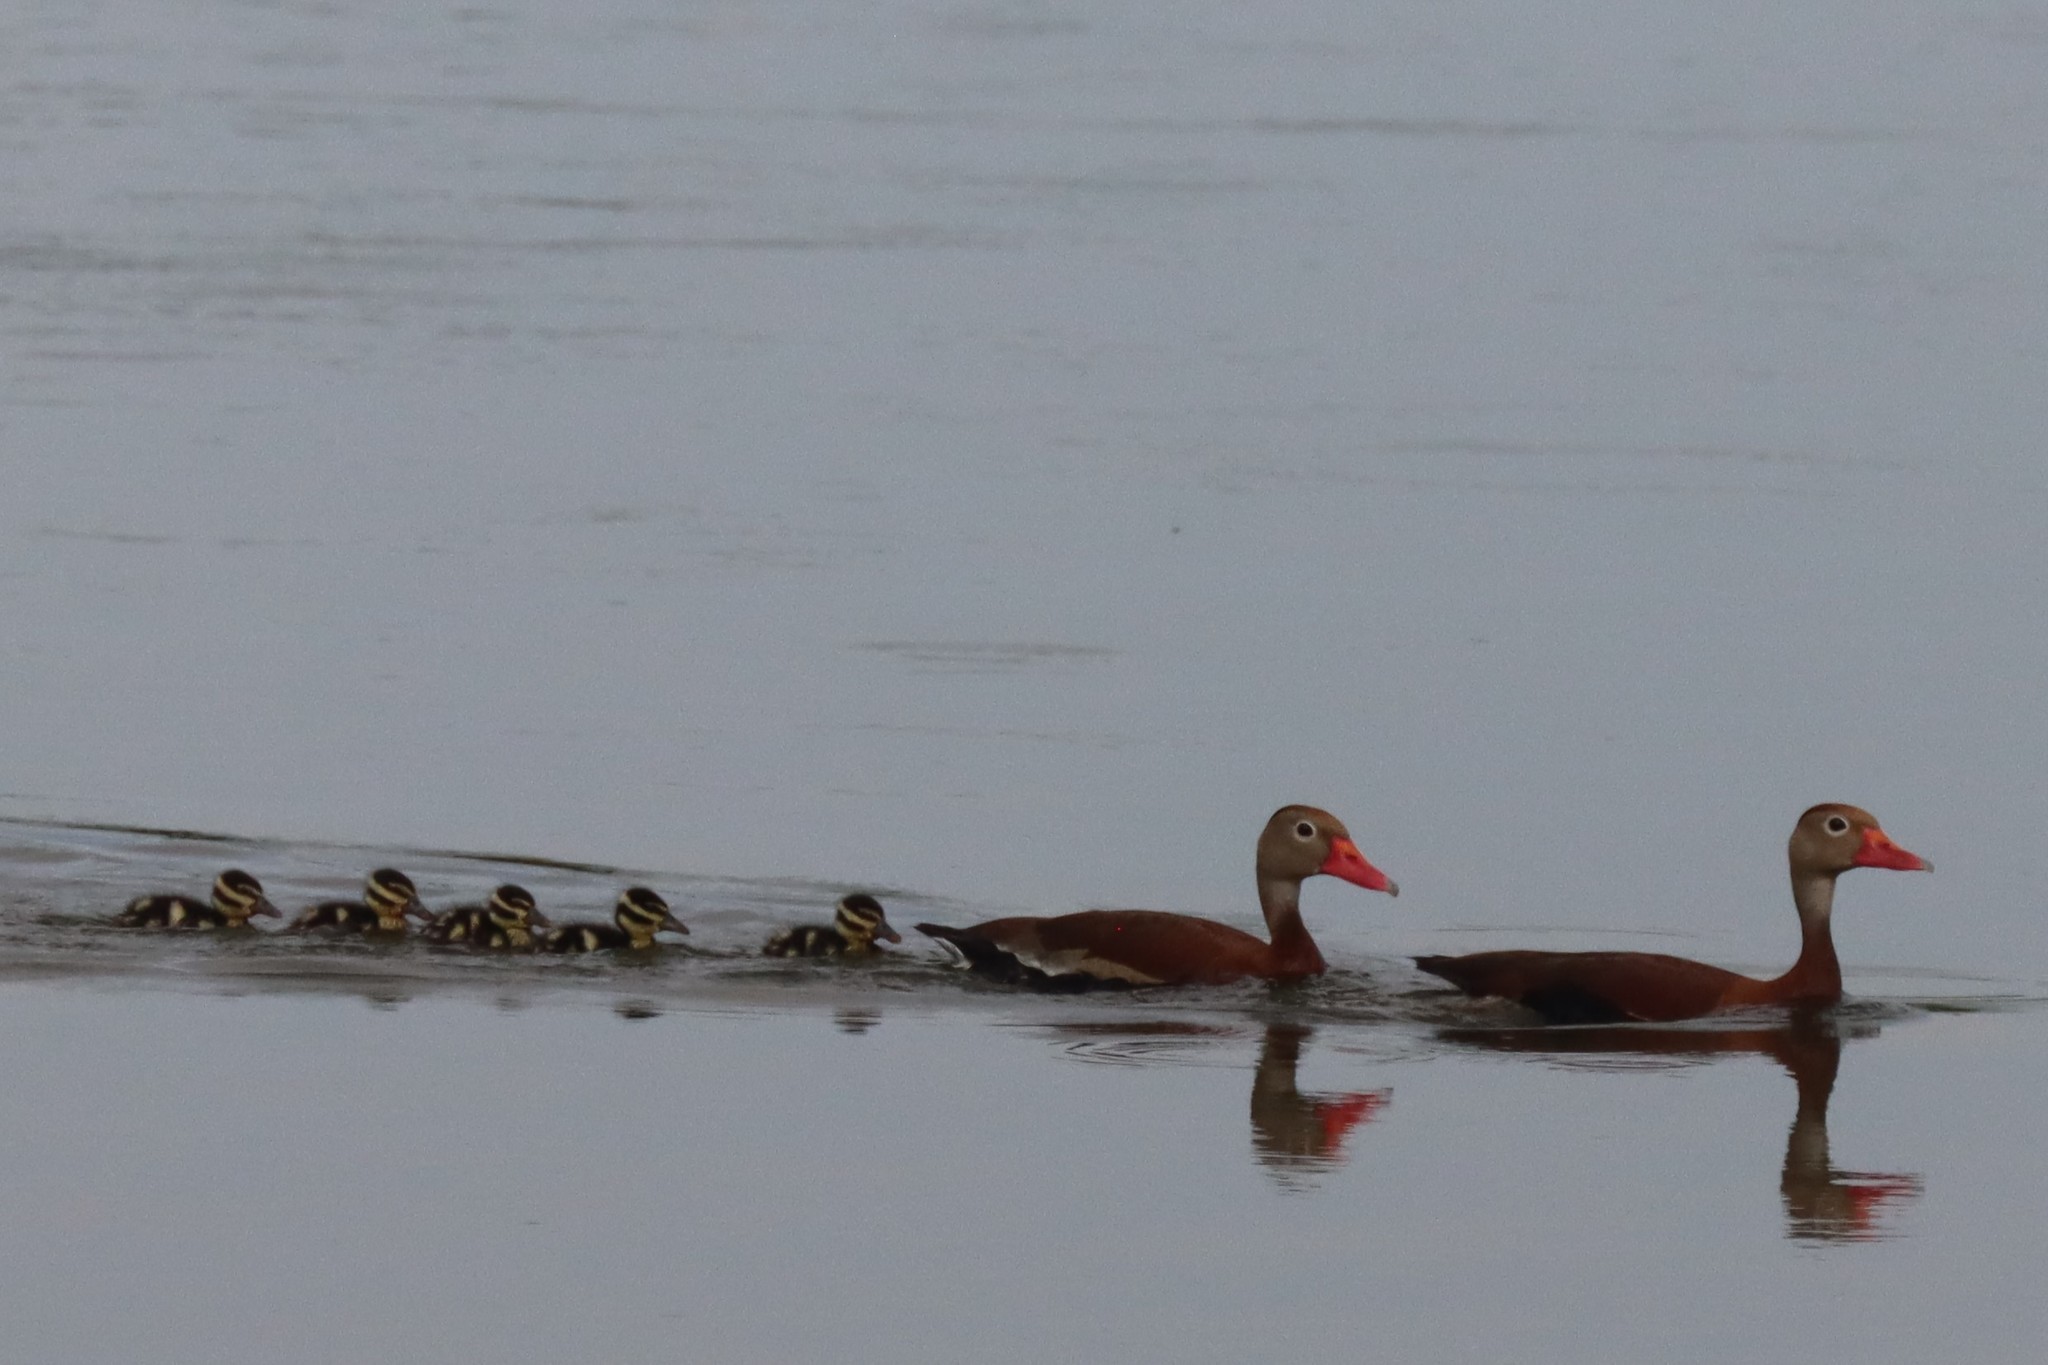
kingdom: Animalia
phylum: Chordata
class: Aves
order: Anseriformes
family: Anatidae
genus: Dendrocygna
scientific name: Dendrocygna autumnalis
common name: Black-bellied whistling duck
